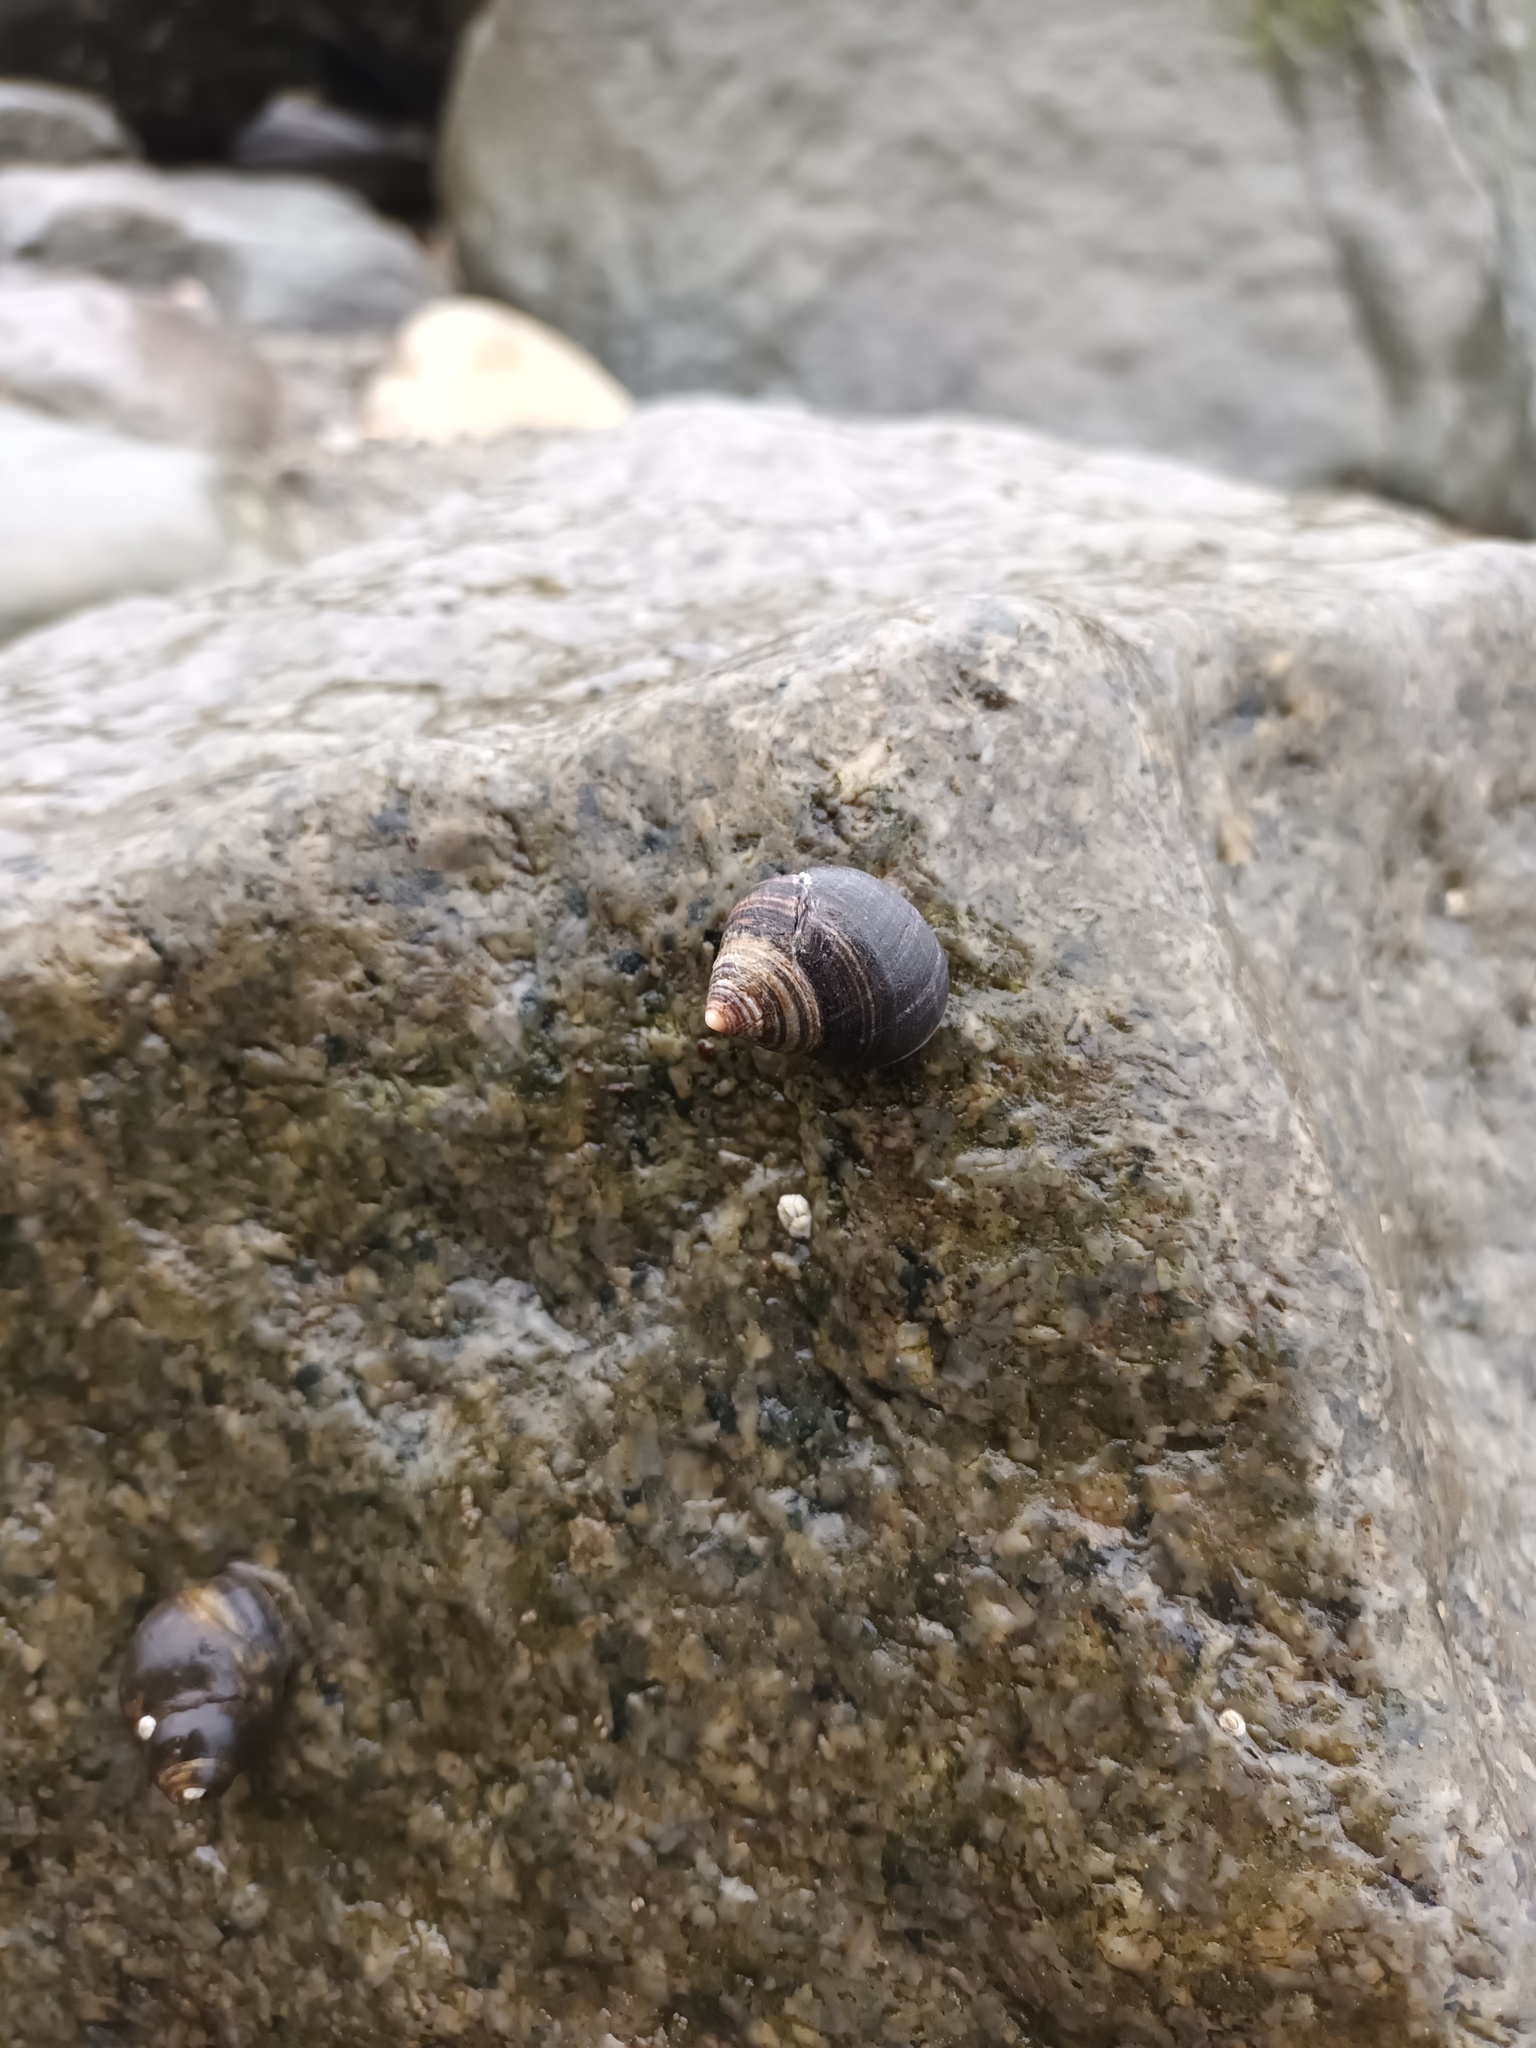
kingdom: Animalia
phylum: Mollusca
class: Gastropoda
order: Littorinimorpha
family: Littorinidae
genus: Littorina
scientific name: Littorina littorea
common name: Common periwinkle
